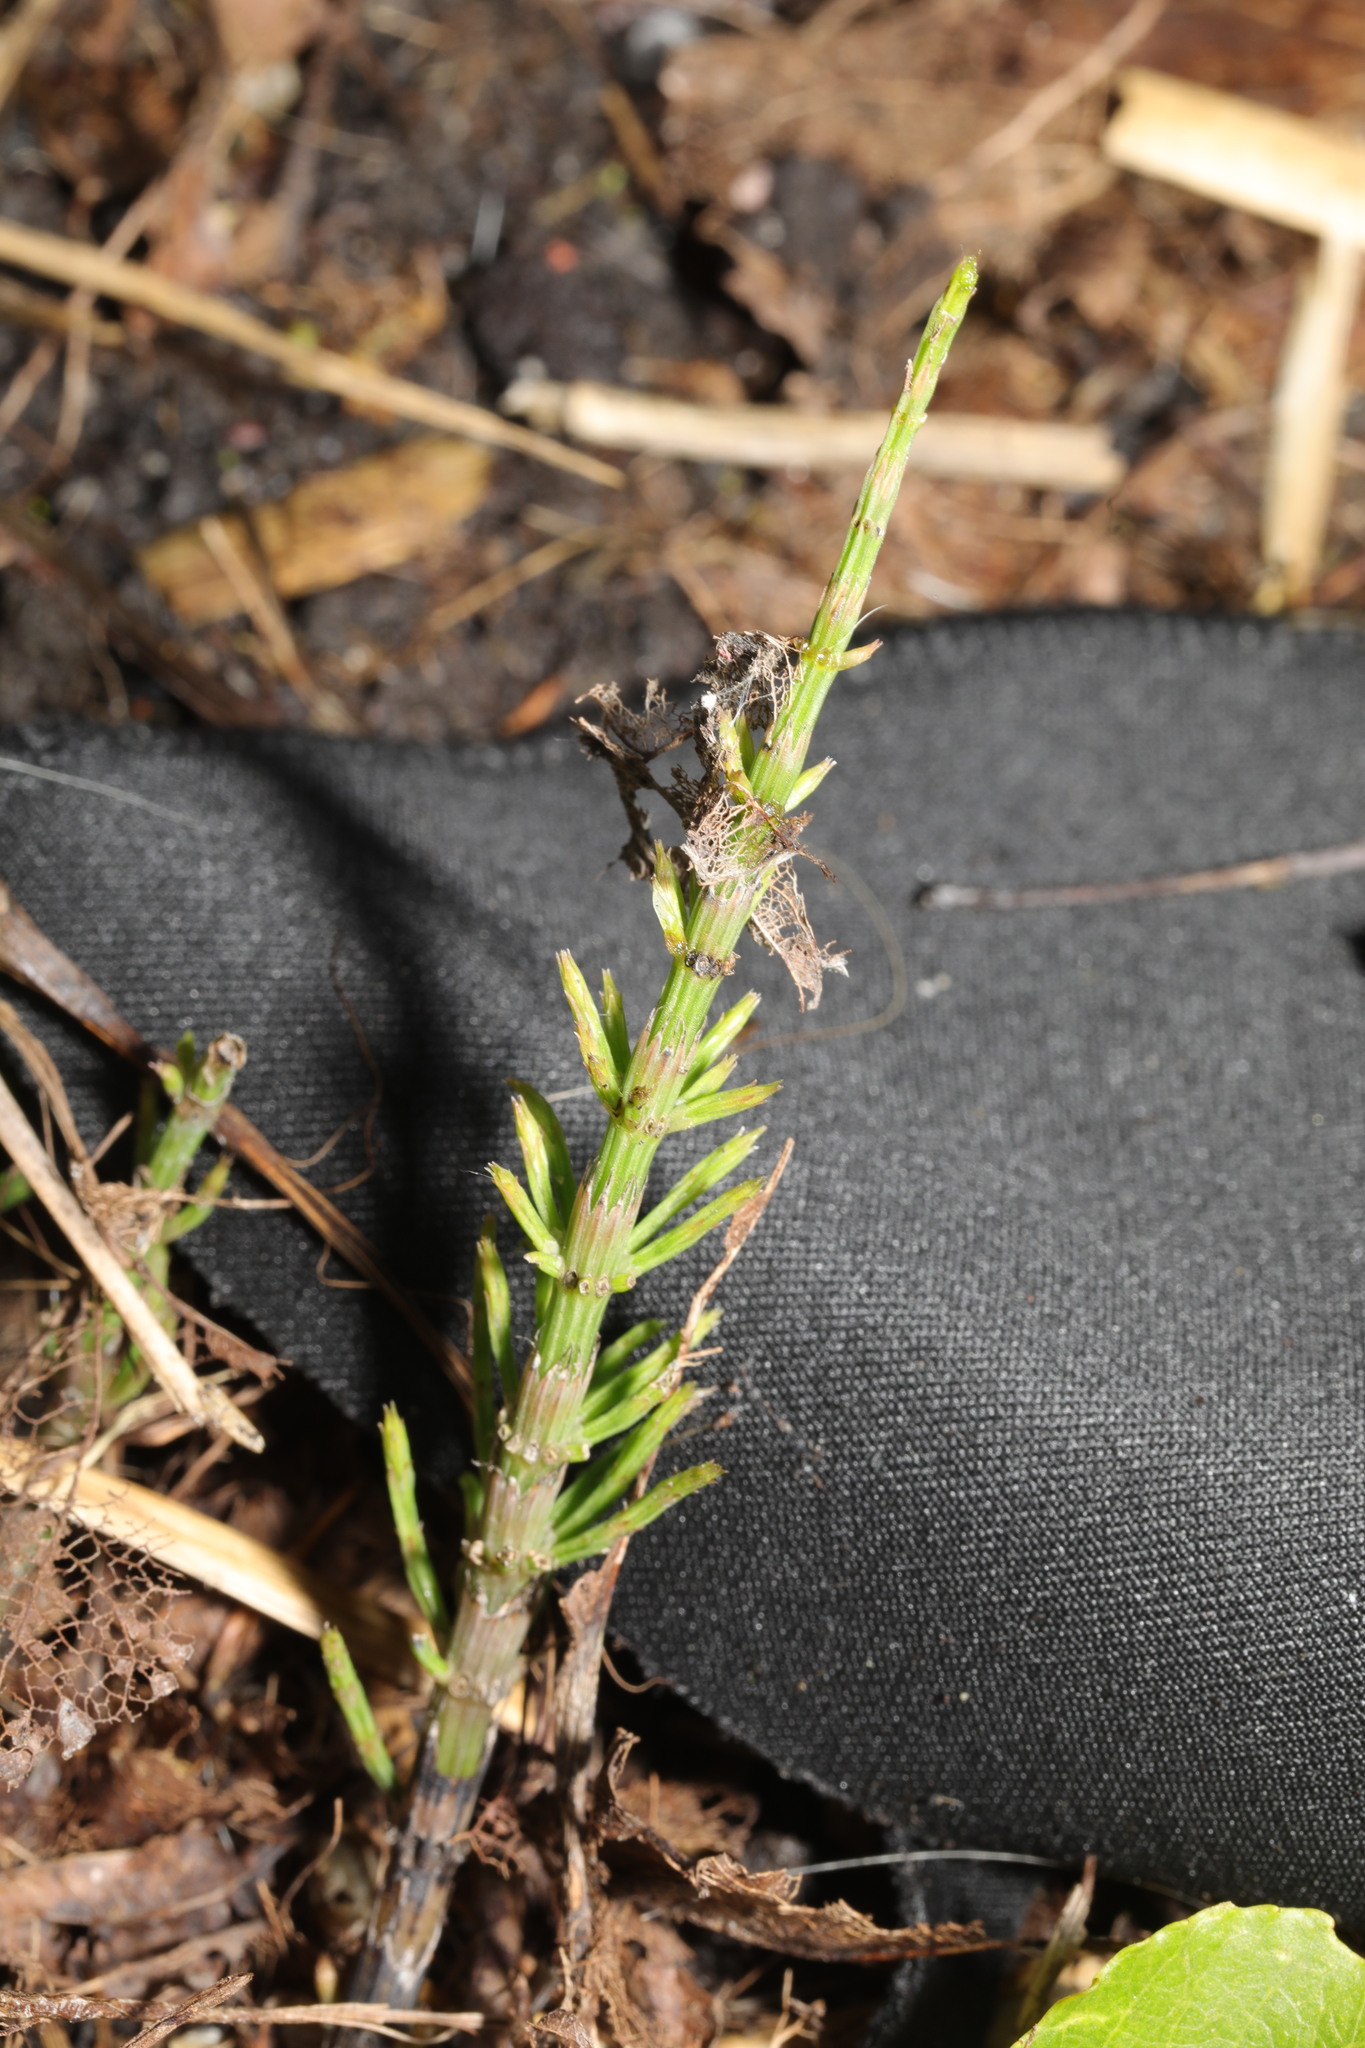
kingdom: Plantae
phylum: Tracheophyta
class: Polypodiopsida
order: Equisetales
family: Equisetaceae
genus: Equisetum
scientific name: Equisetum arvense
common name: Field horsetail
